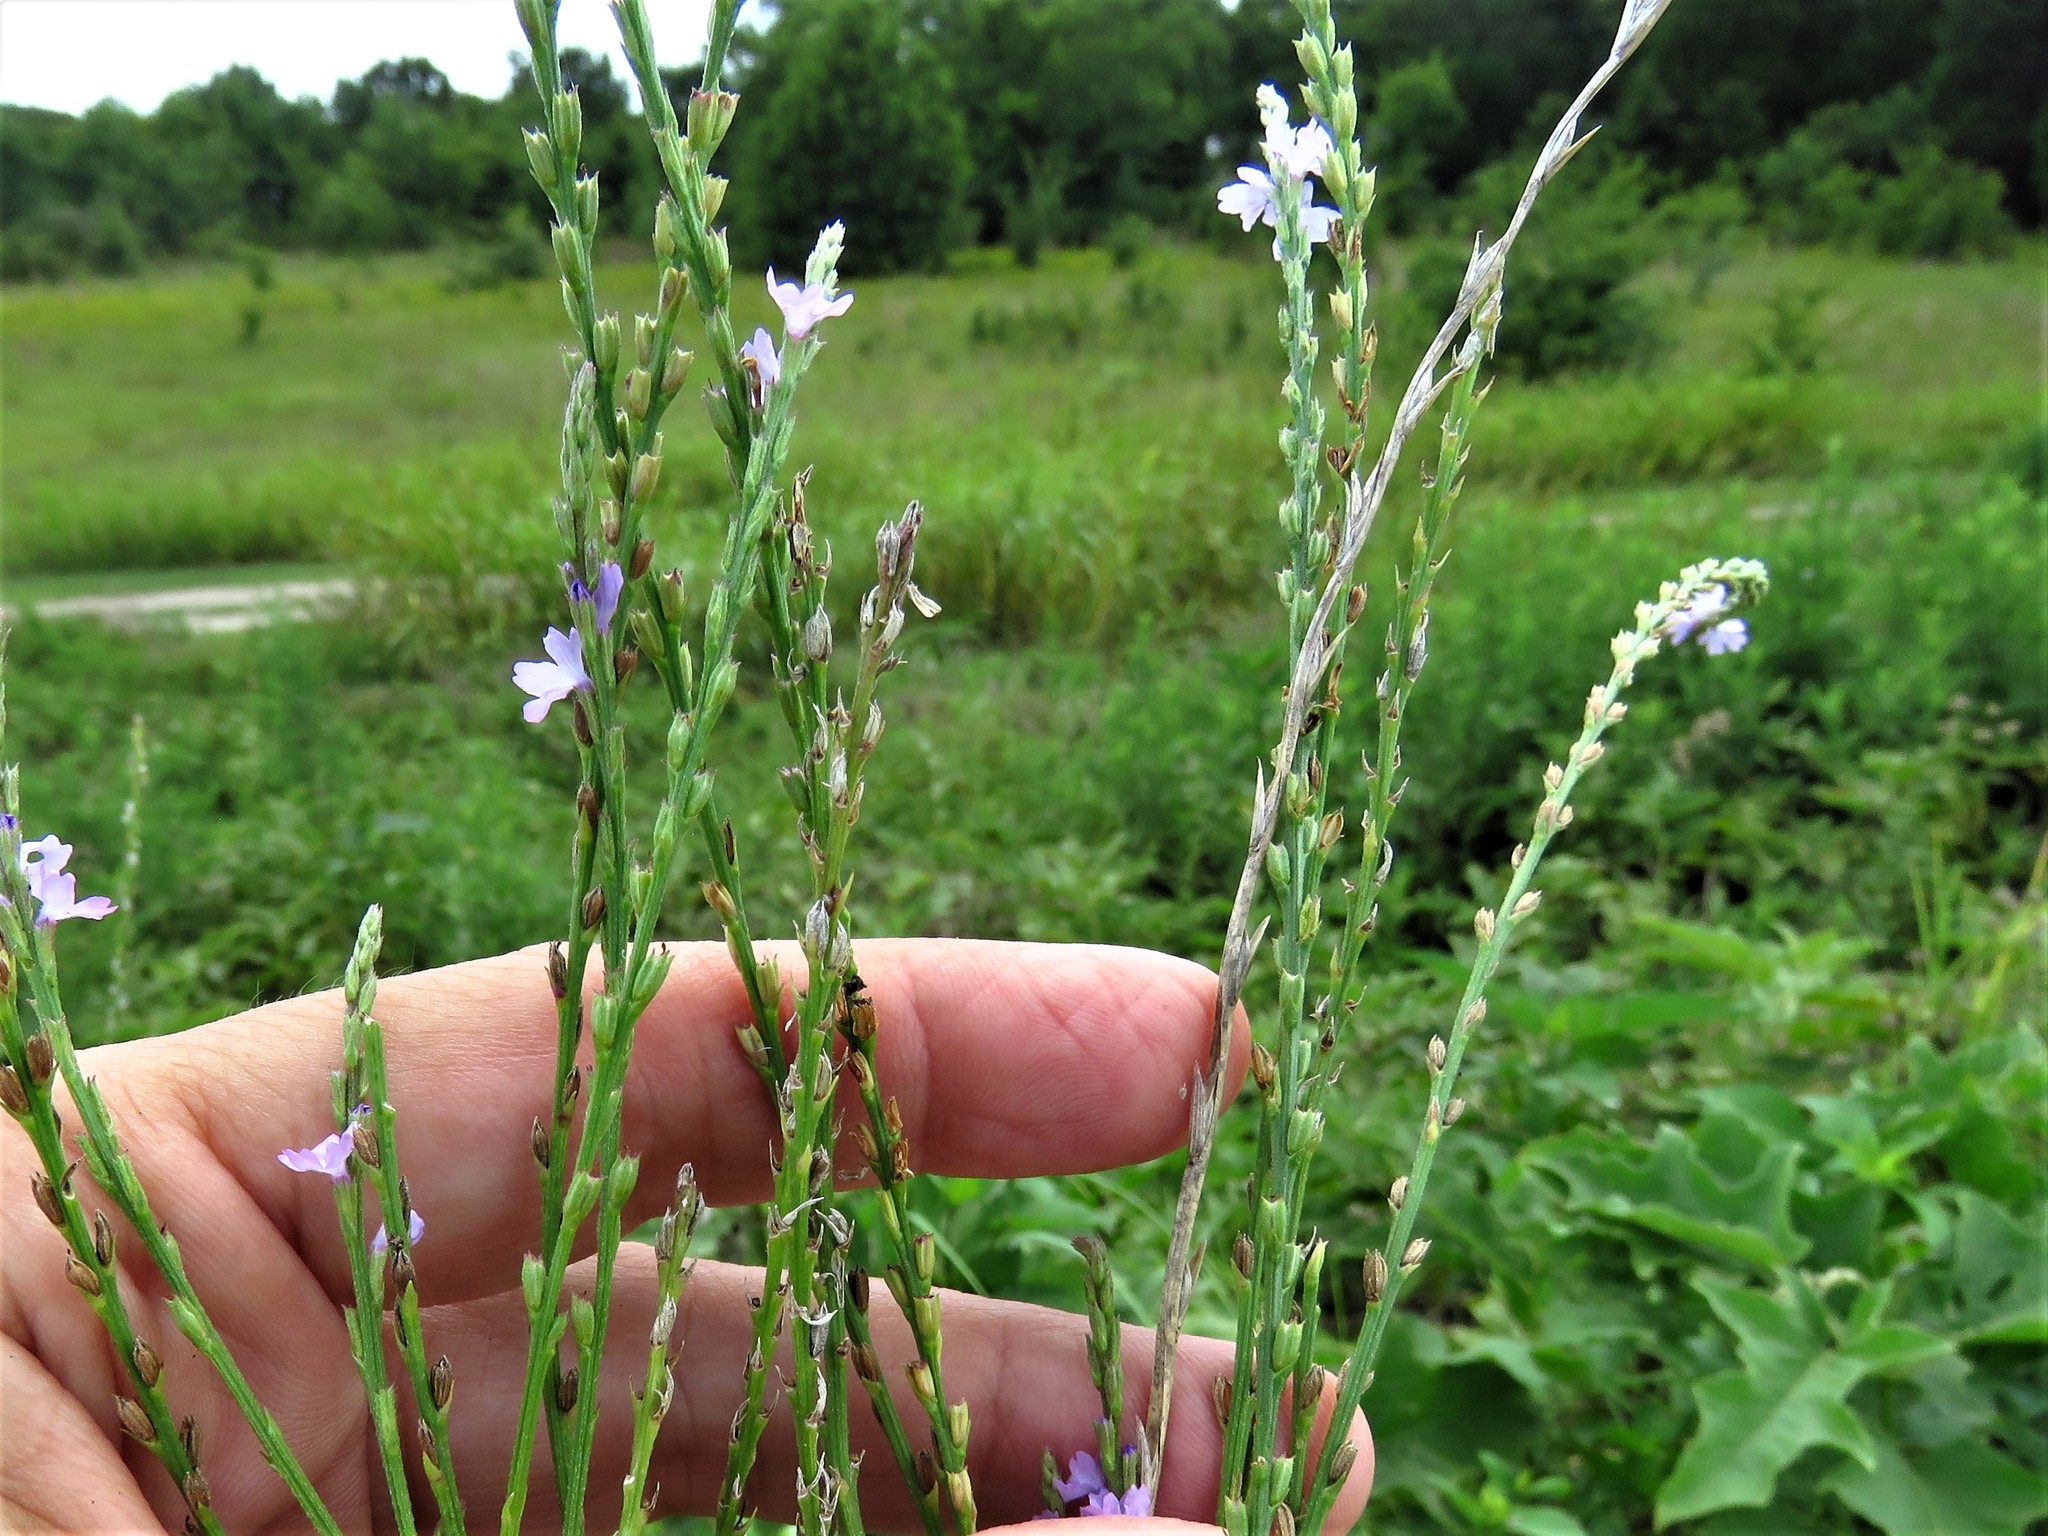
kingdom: Plantae
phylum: Tracheophyta
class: Magnoliopsida
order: Lamiales
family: Verbenaceae
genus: Verbena
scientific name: Verbena halei
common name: Texas vervain
